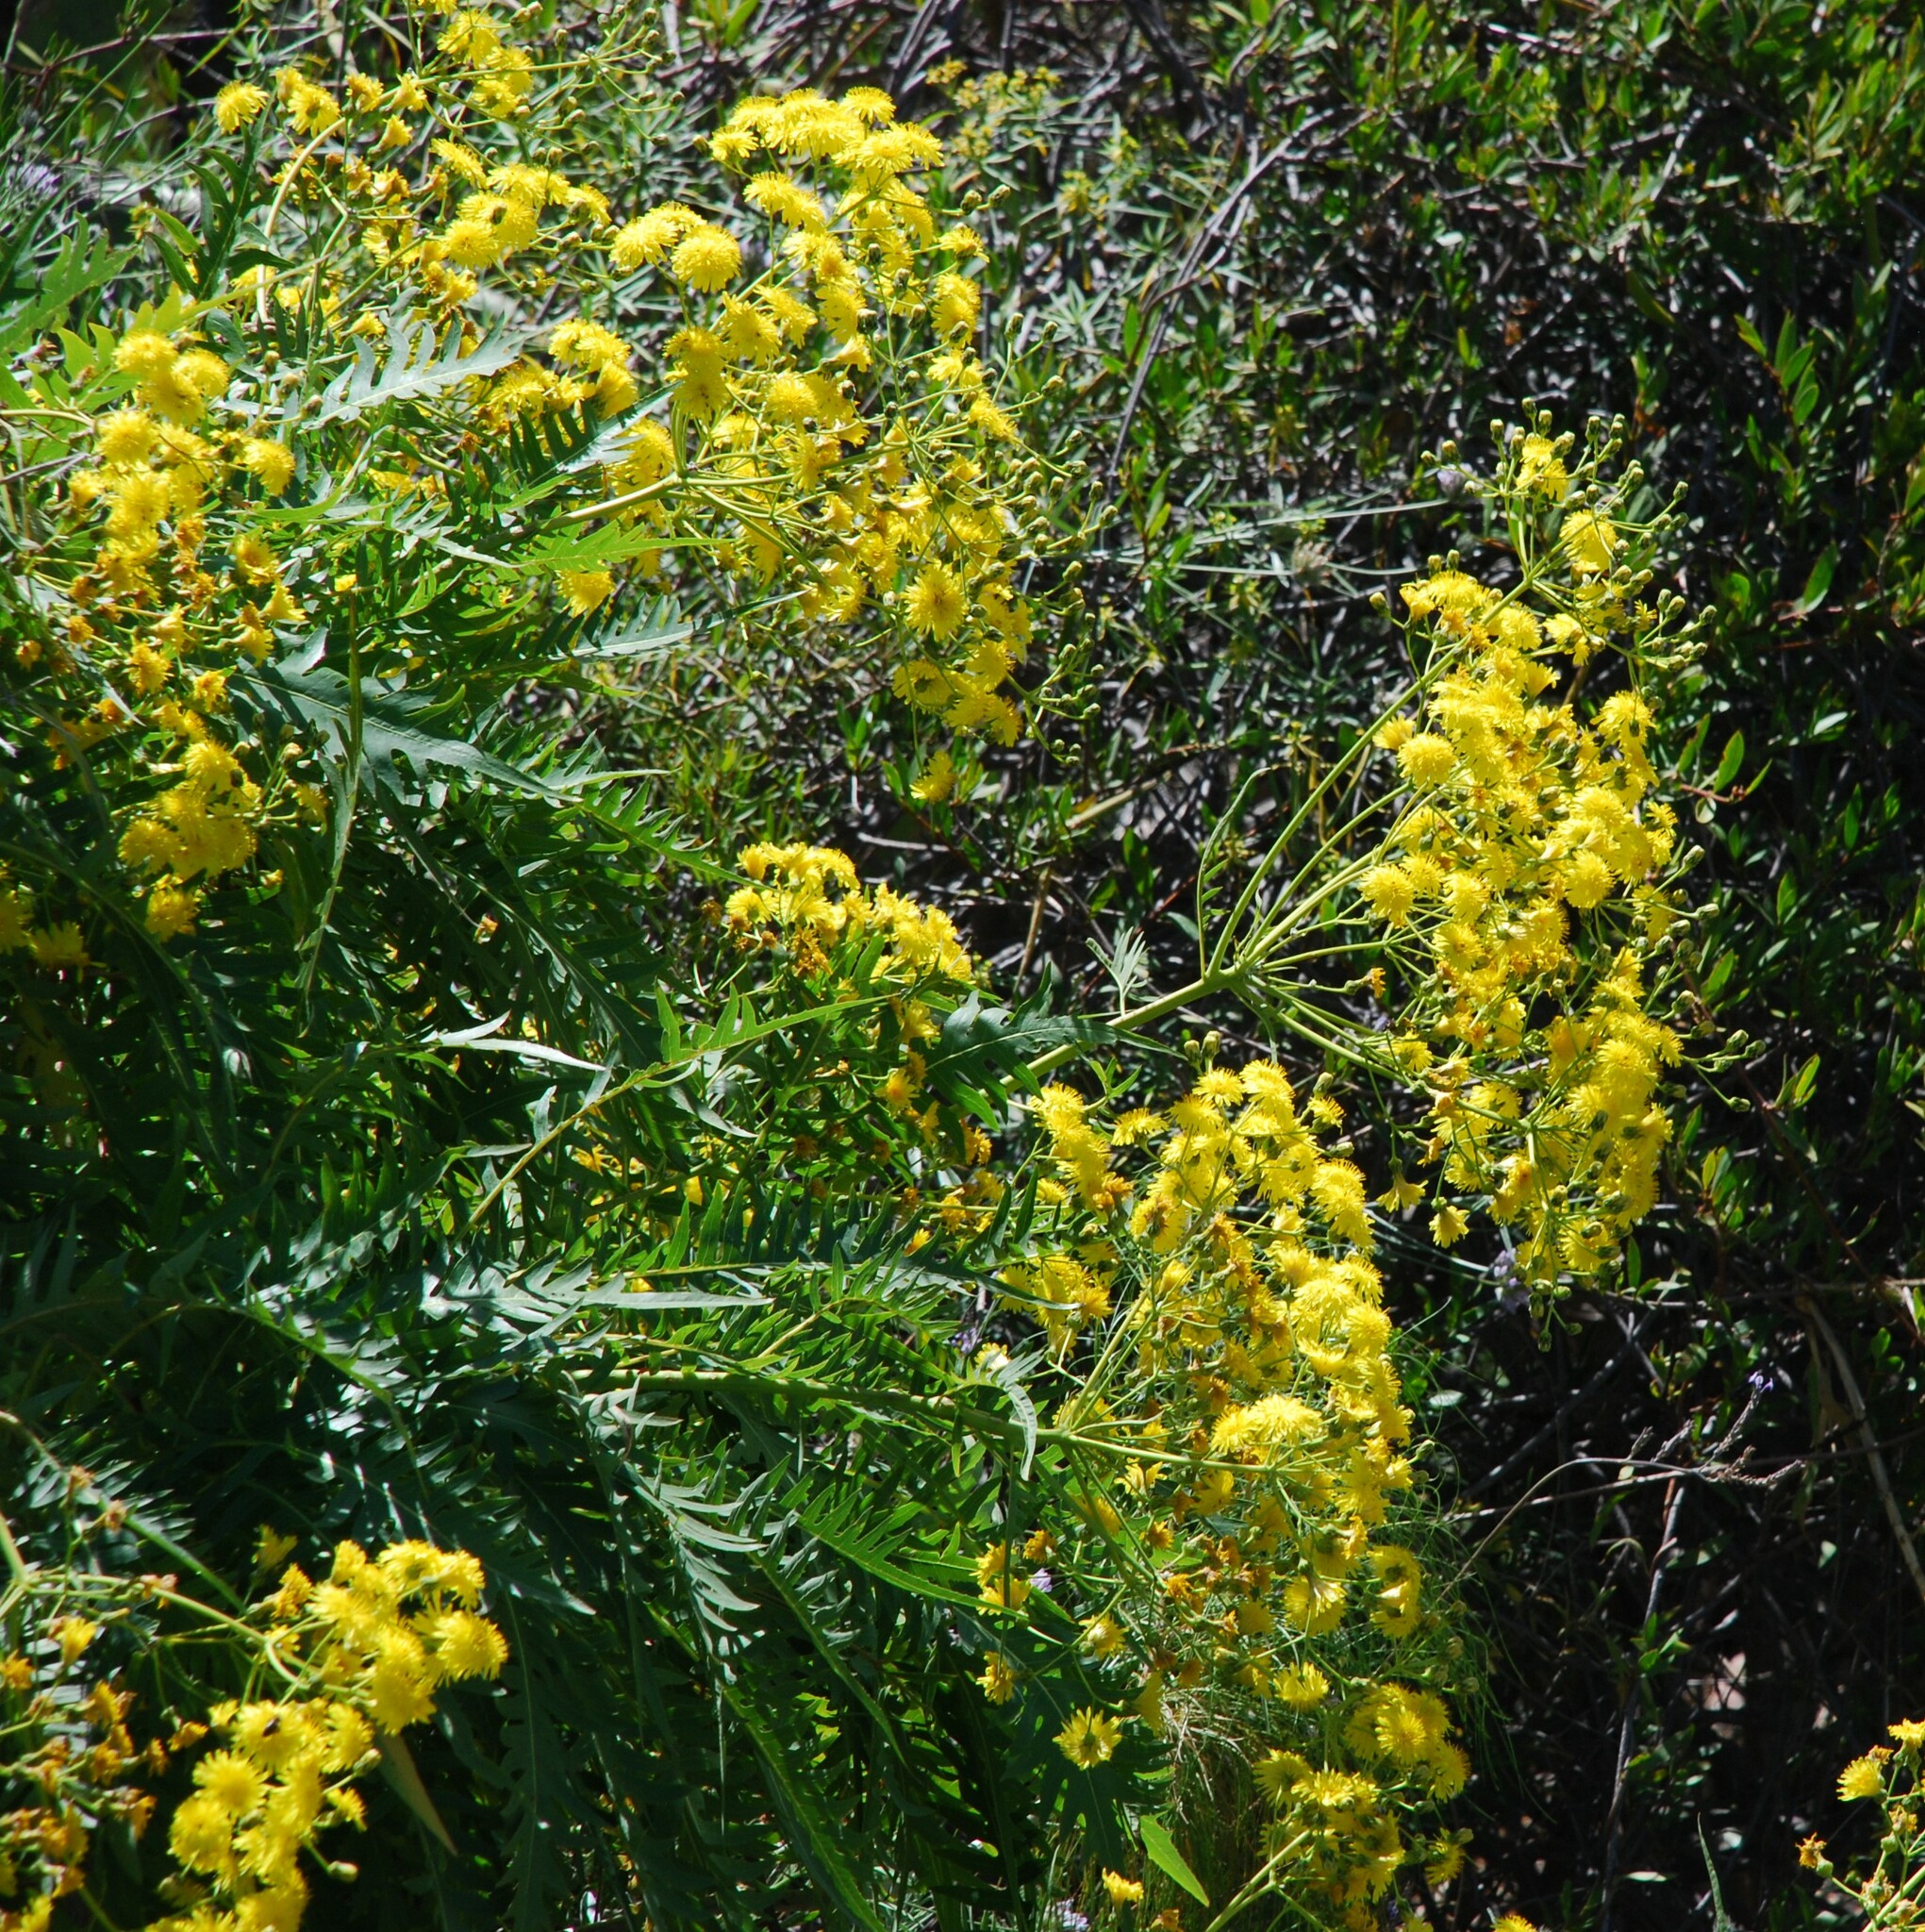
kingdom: Plantae
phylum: Tracheophyta
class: Magnoliopsida
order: Asterales
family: Asteraceae
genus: Sonchus
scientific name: Sonchus canariensis
